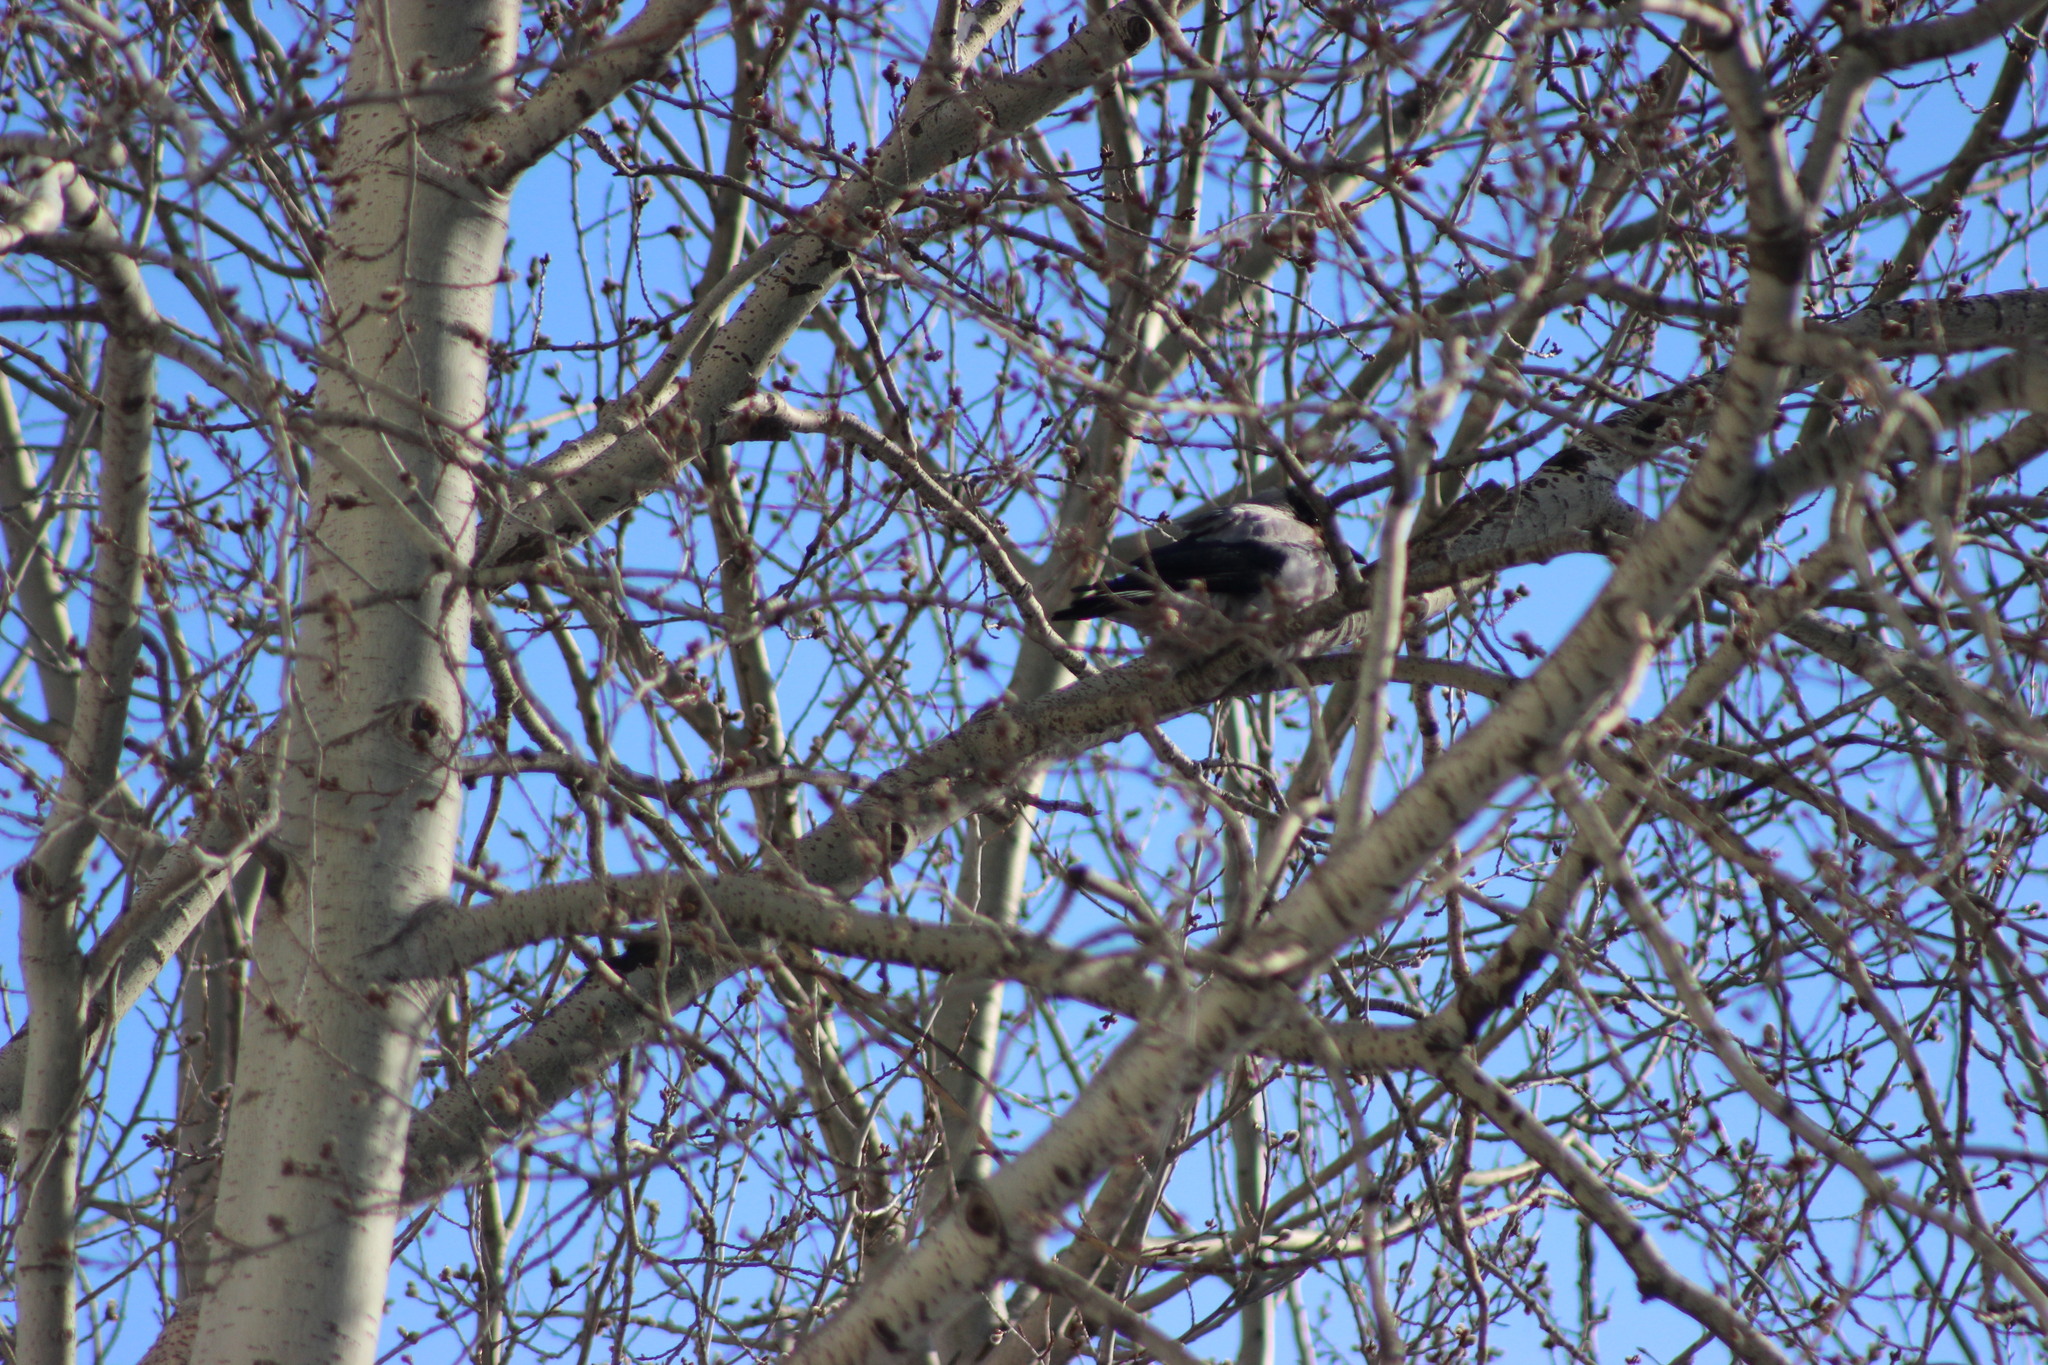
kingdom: Animalia
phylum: Chordata
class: Aves
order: Passeriformes
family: Corvidae
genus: Corvus
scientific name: Corvus cornix
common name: Hooded crow
